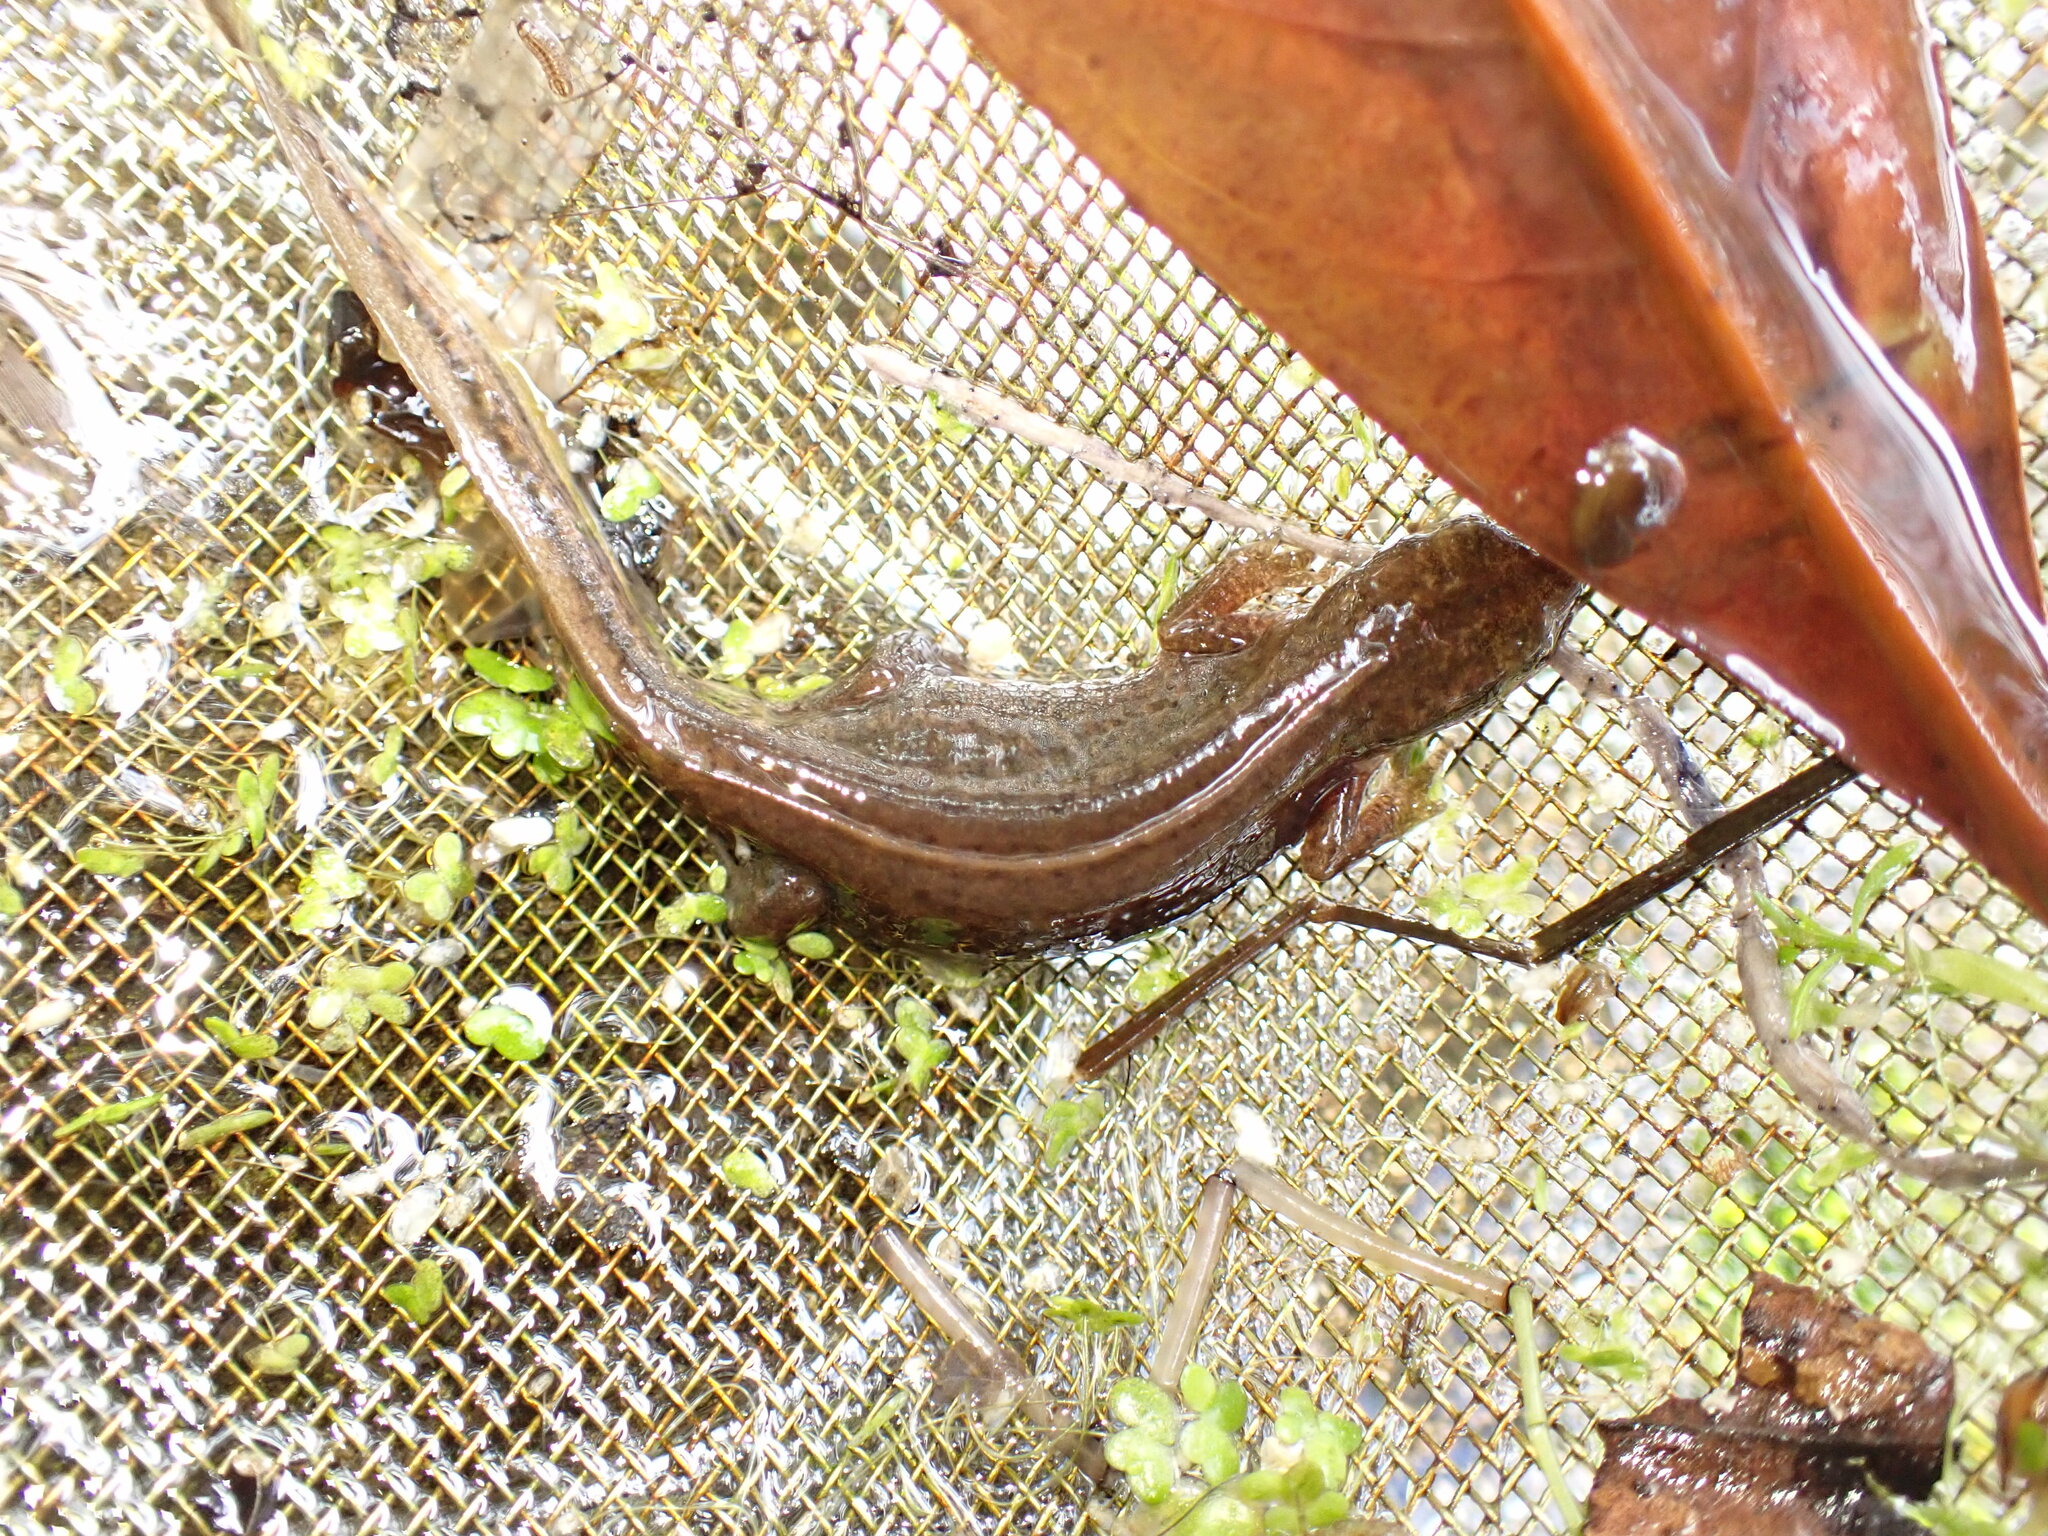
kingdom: Animalia
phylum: Chordata
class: Amphibia
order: Caudata
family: Salamandridae
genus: Lissotriton
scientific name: Lissotriton helveticus
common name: Palmate newt
